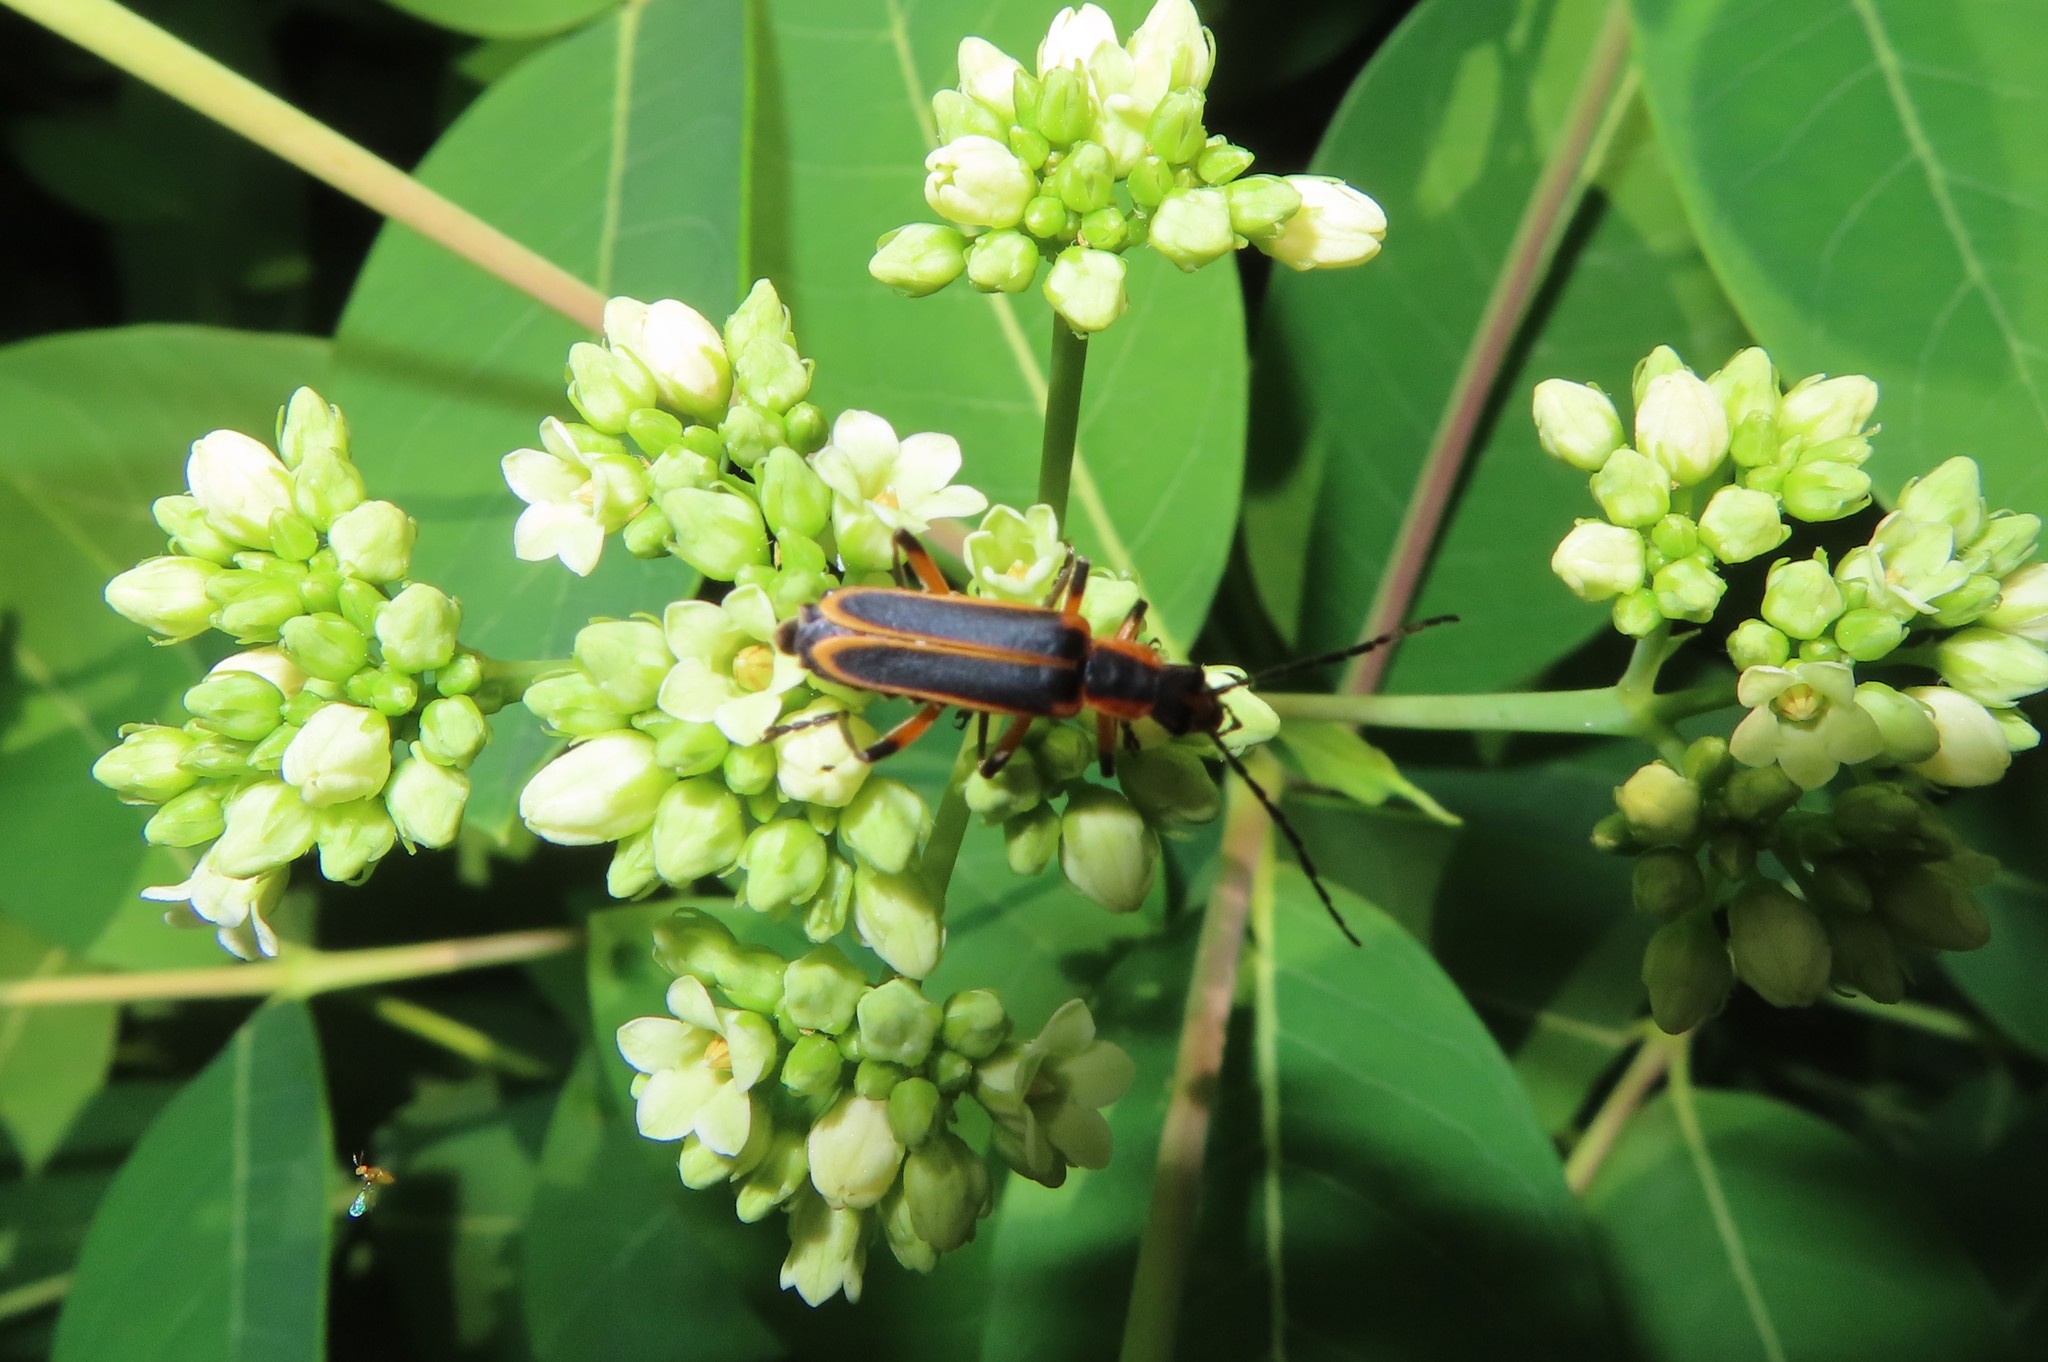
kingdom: Animalia
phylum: Arthropoda
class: Insecta
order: Coleoptera
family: Cantharidae
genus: Chauliognathus
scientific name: Chauliognathus marginatus
